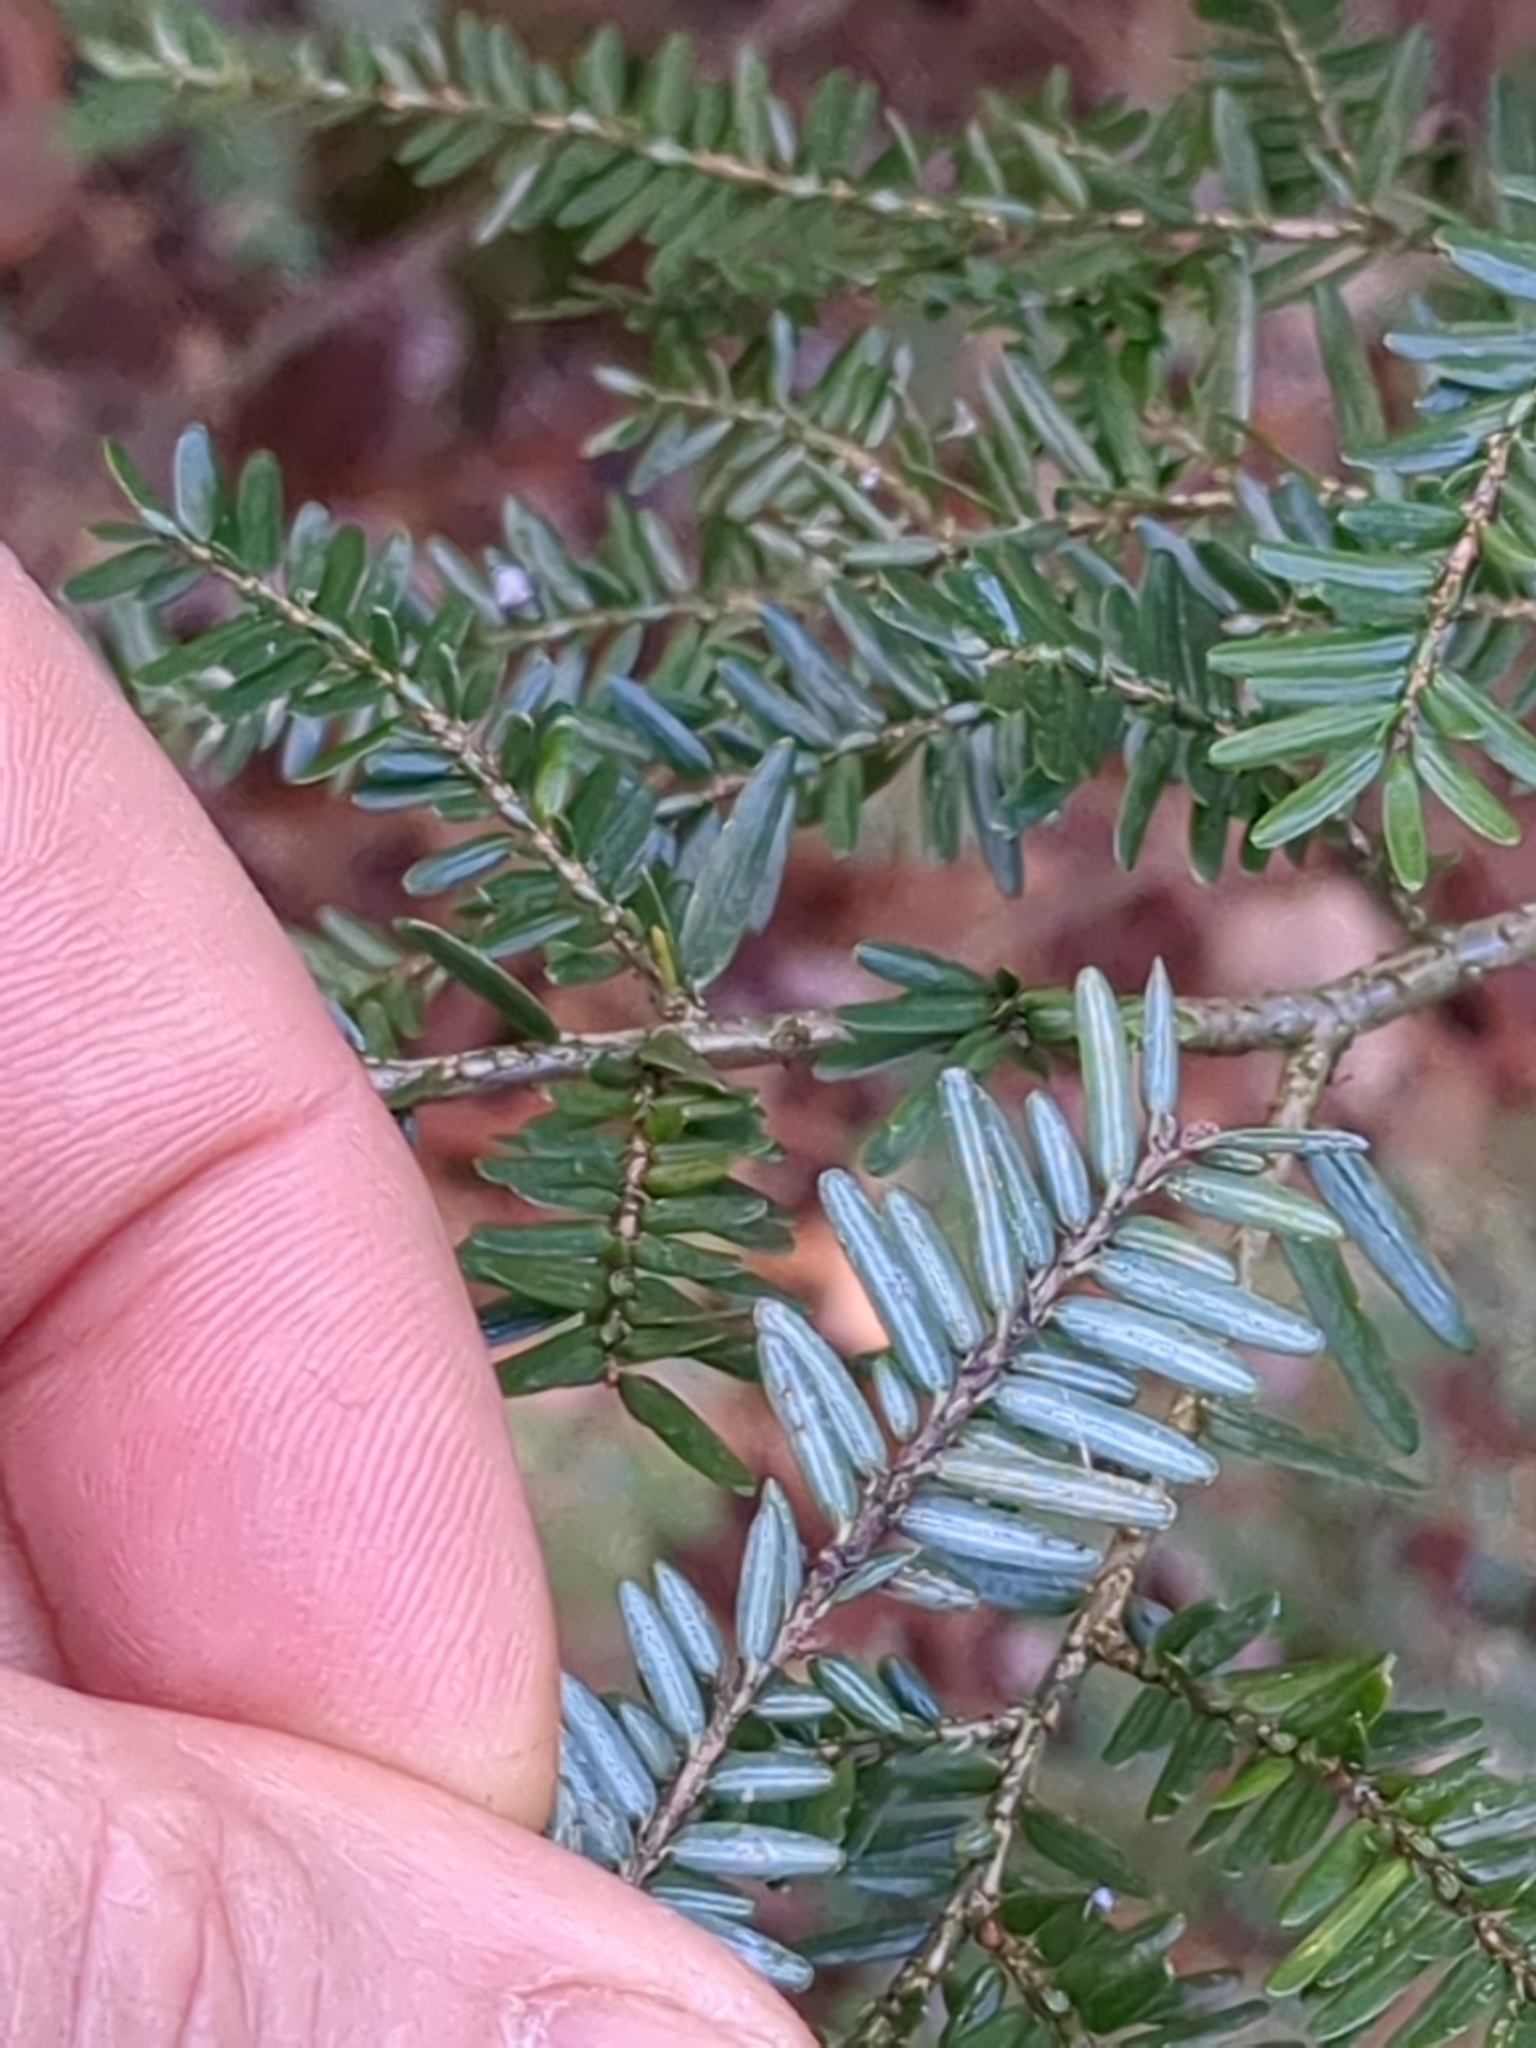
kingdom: Plantae
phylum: Tracheophyta
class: Pinopsida
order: Pinales
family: Pinaceae
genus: Tsuga
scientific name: Tsuga canadensis
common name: Eastern hemlock
